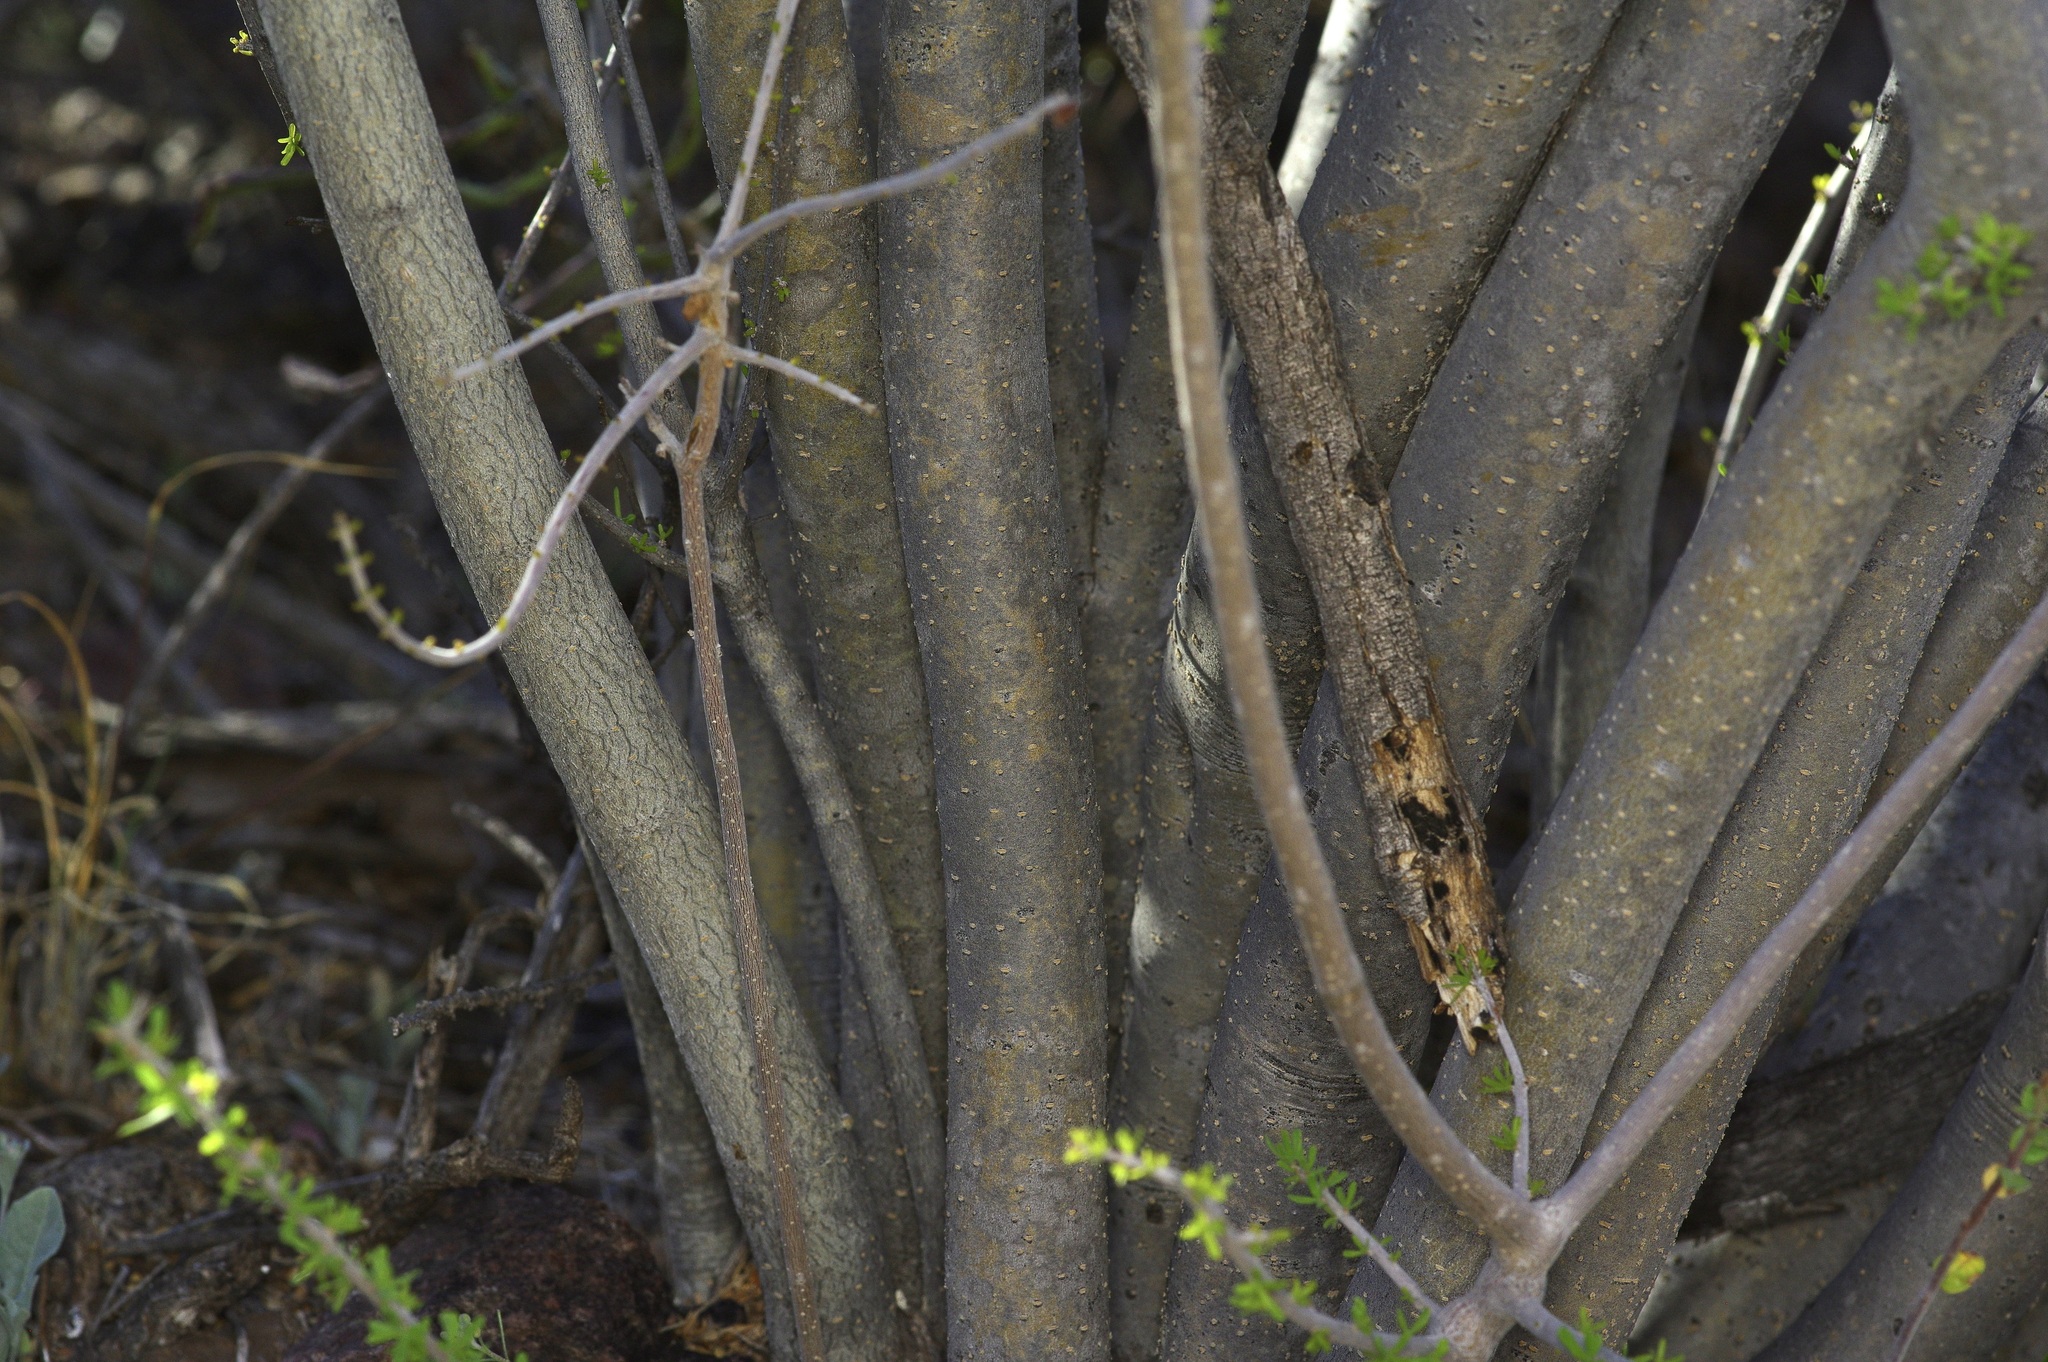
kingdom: Plantae
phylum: Tracheophyta
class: Magnoliopsida
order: Lamiales
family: Oleaceae
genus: Forestiera
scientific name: Forestiera angustifolia
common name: Elbowbush
